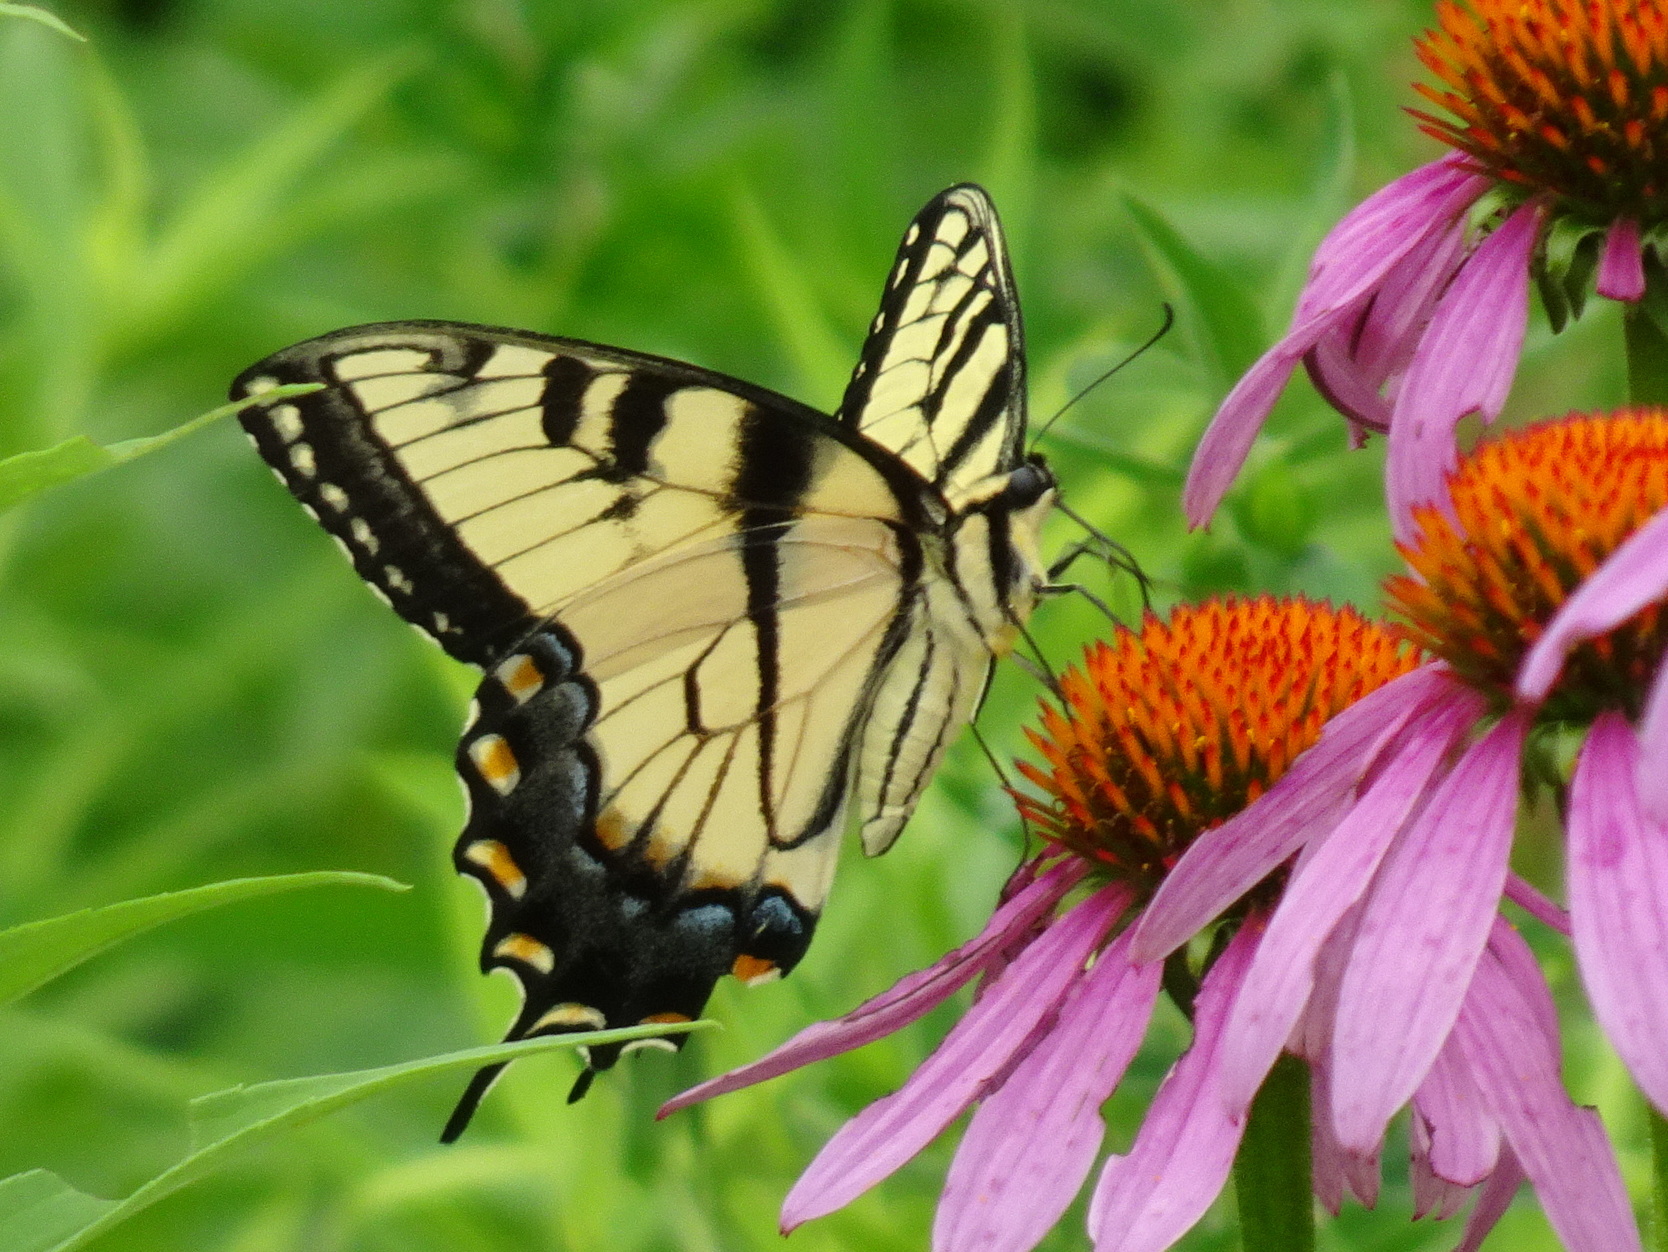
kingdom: Animalia
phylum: Arthropoda
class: Insecta
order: Lepidoptera
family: Papilionidae
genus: Papilio
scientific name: Papilio glaucus
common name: Tiger swallowtail
